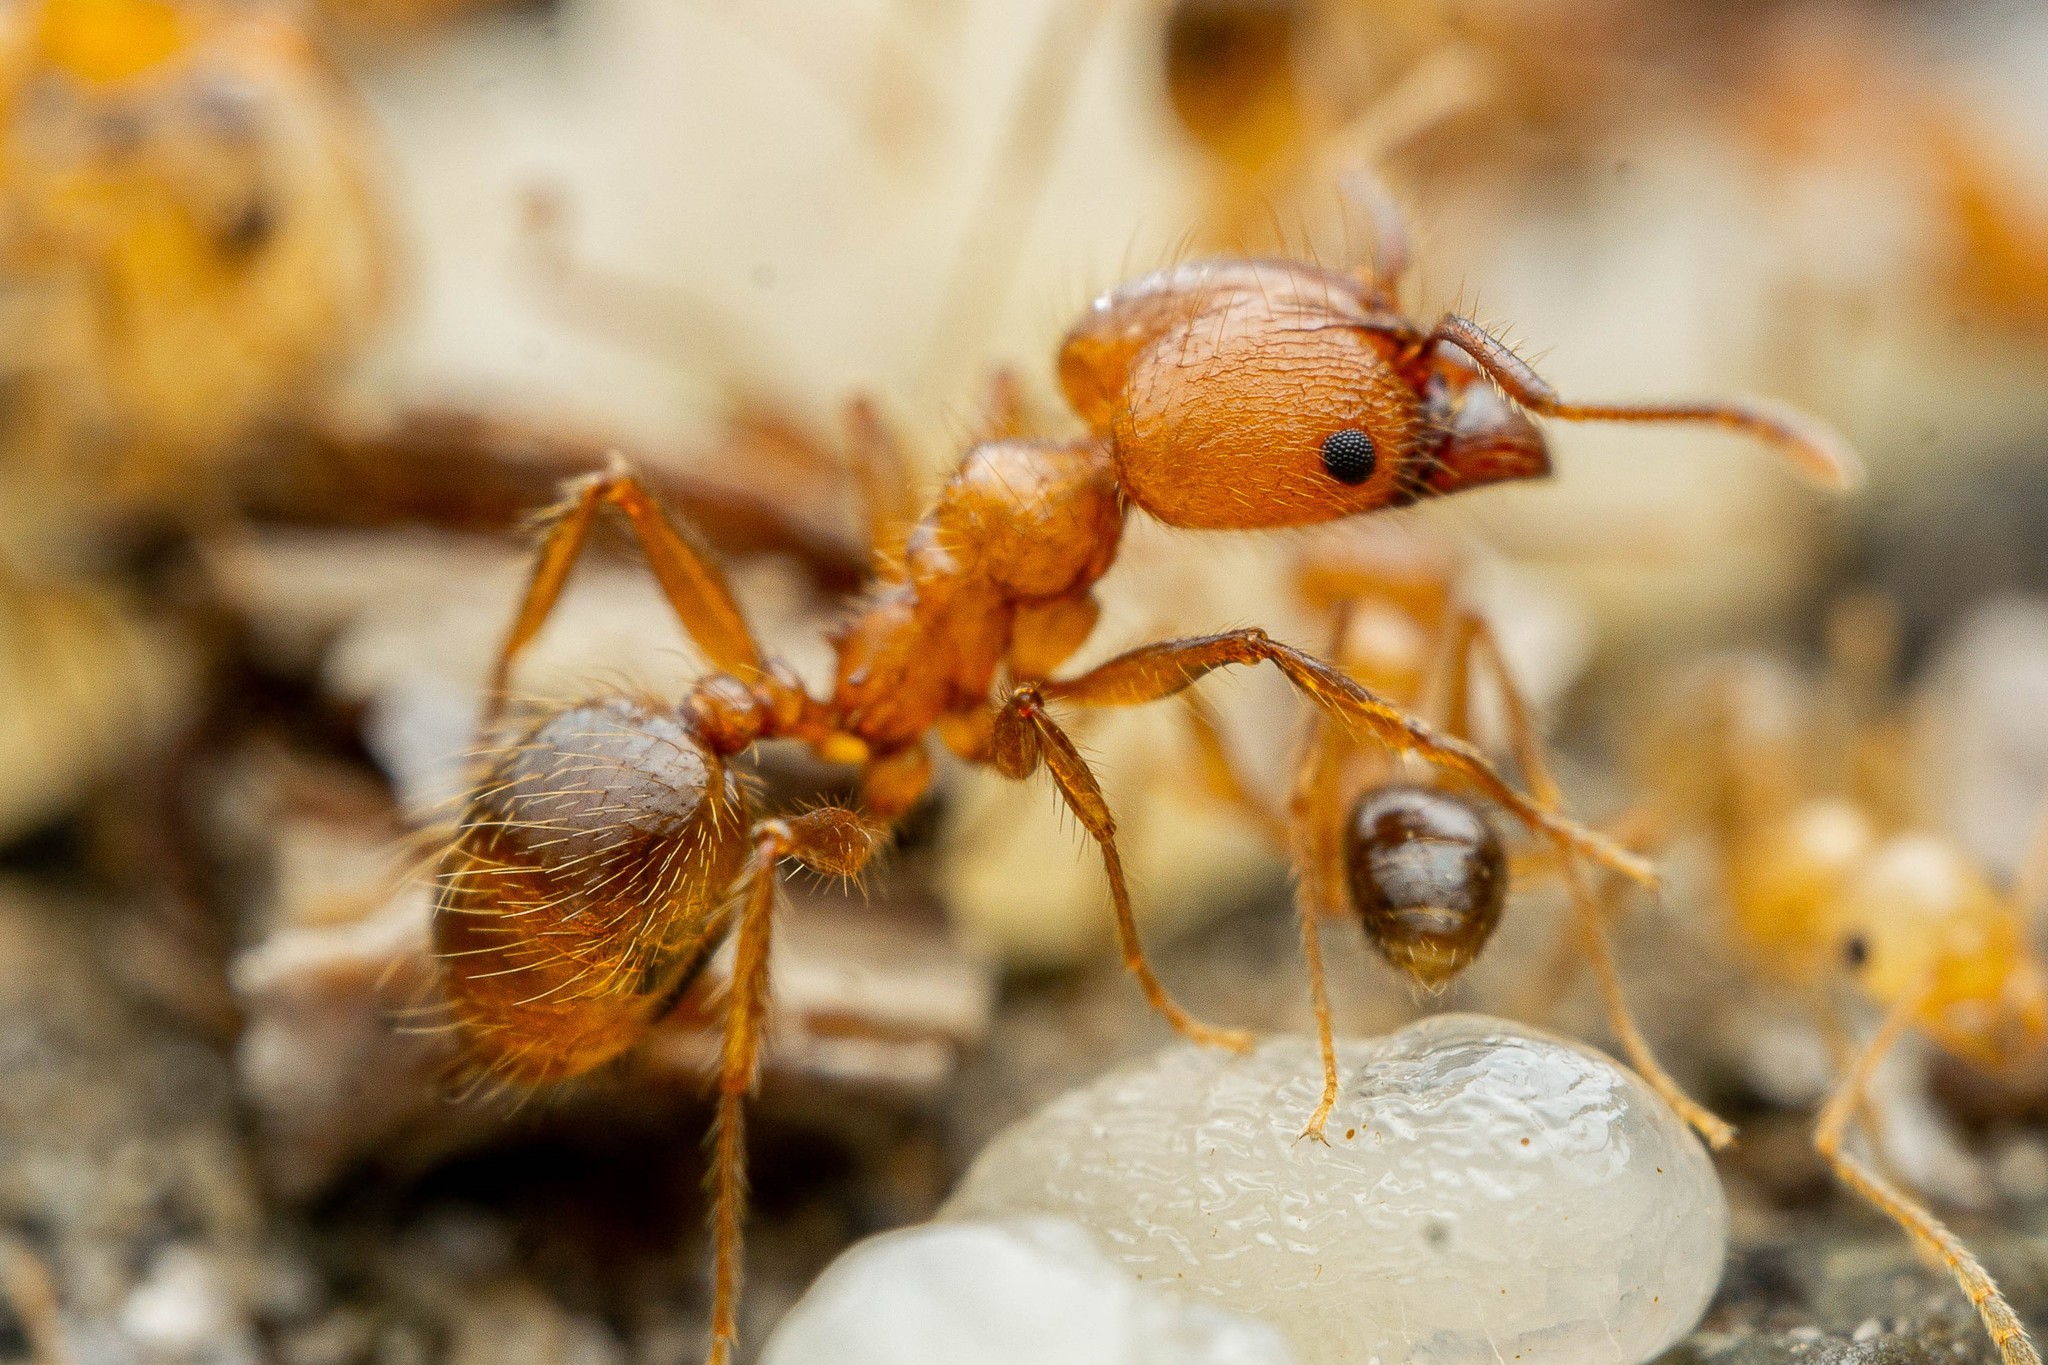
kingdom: Animalia
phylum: Arthropoda
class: Insecta
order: Hymenoptera
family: Formicidae
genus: Pheidole
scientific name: Pheidole hyatti
